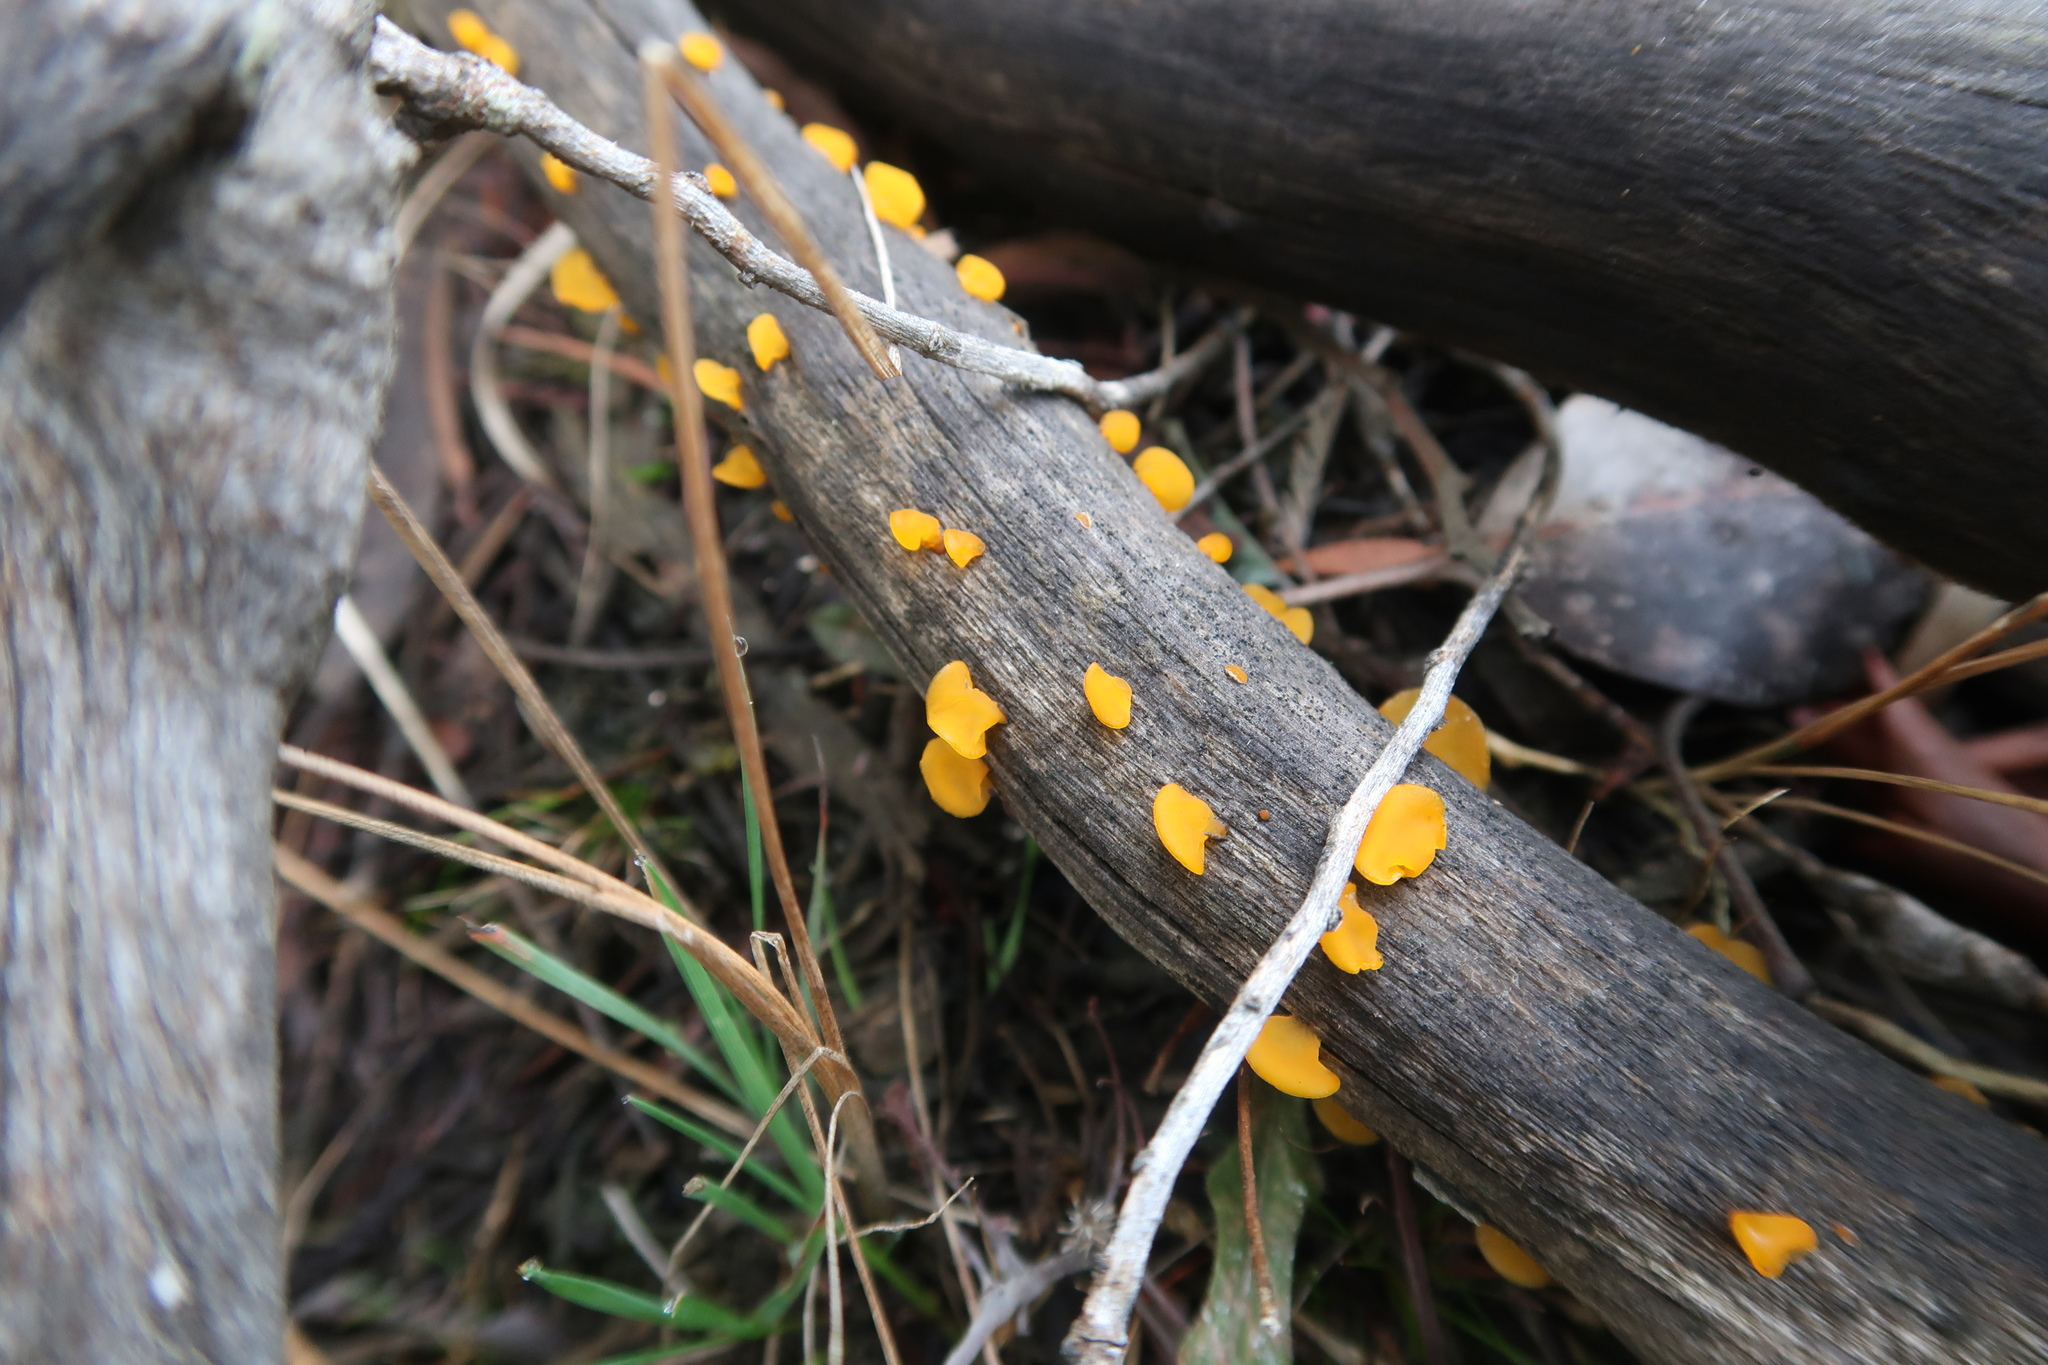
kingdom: Fungi
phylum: Basidiomycota
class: Dacrymycetes
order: Dacrymycetales
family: Dacrymycetaceae
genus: Heterotextus
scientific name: Heterotextus peziziformis
